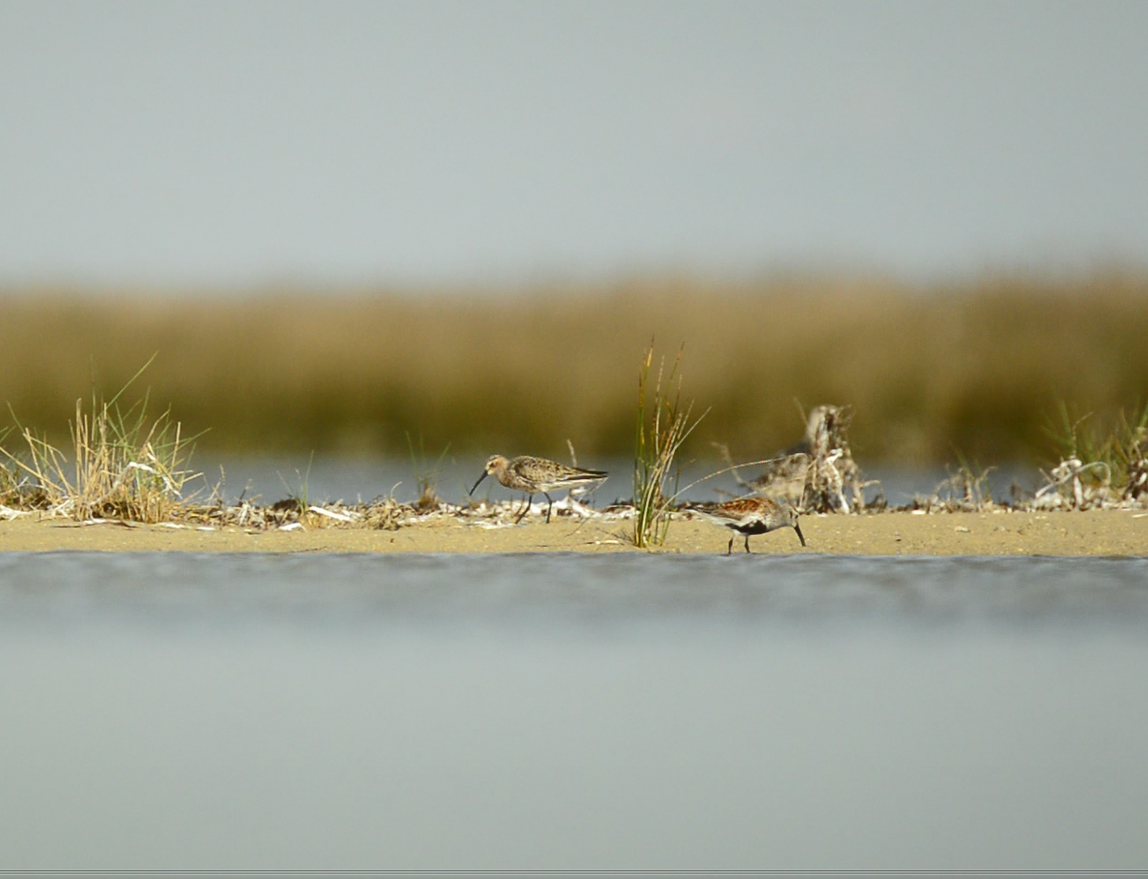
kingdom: Animalia
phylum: Chordata
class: Aves
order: Charadriiformes
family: Scolopacidae
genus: Calidris
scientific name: Calidris ferruginea
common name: Curlew sandpiper
